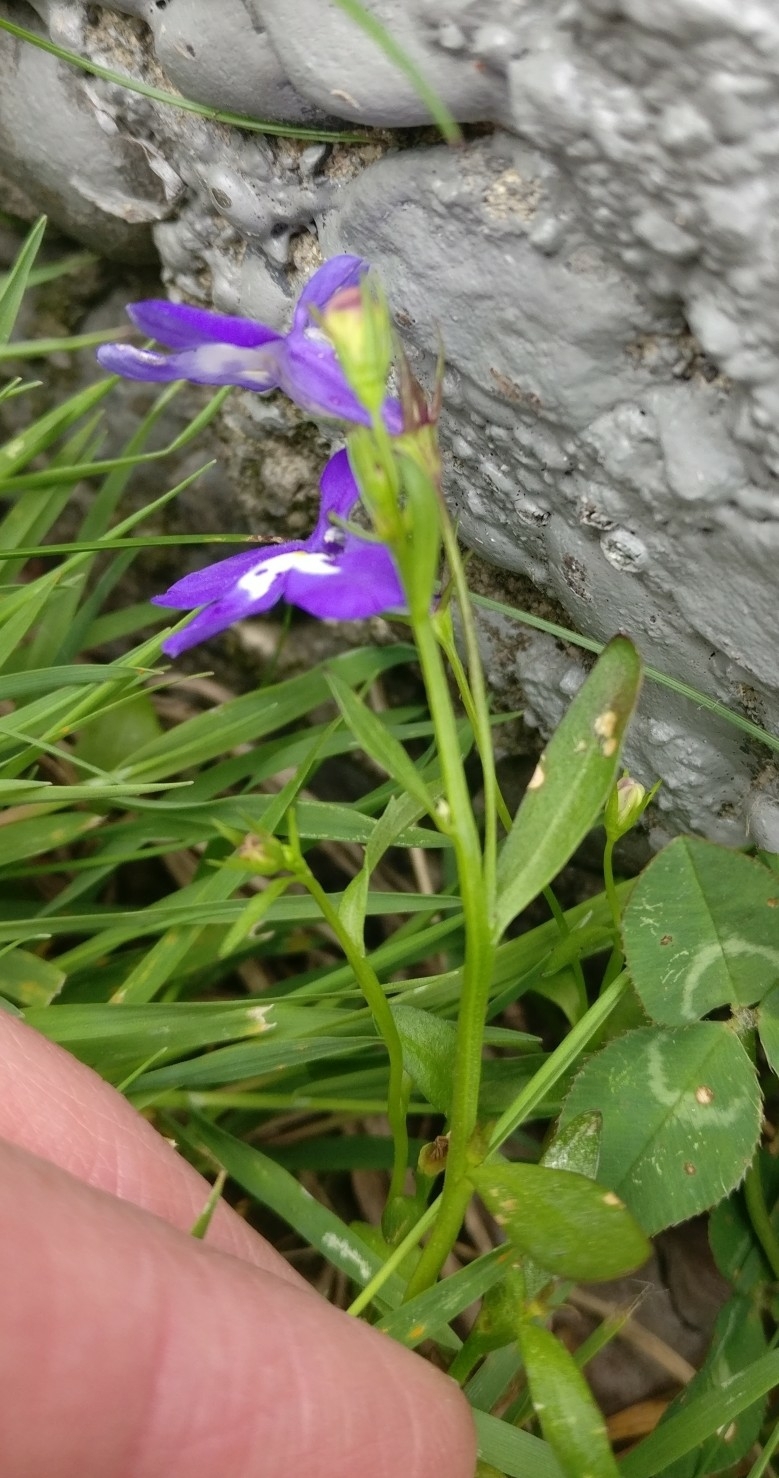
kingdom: Plantae
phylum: Tracheophyta
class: Magnoliopsida
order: Asterales
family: Campanulaceae
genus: Lobelia
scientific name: Lobelia erinus
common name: Edging lobelia
